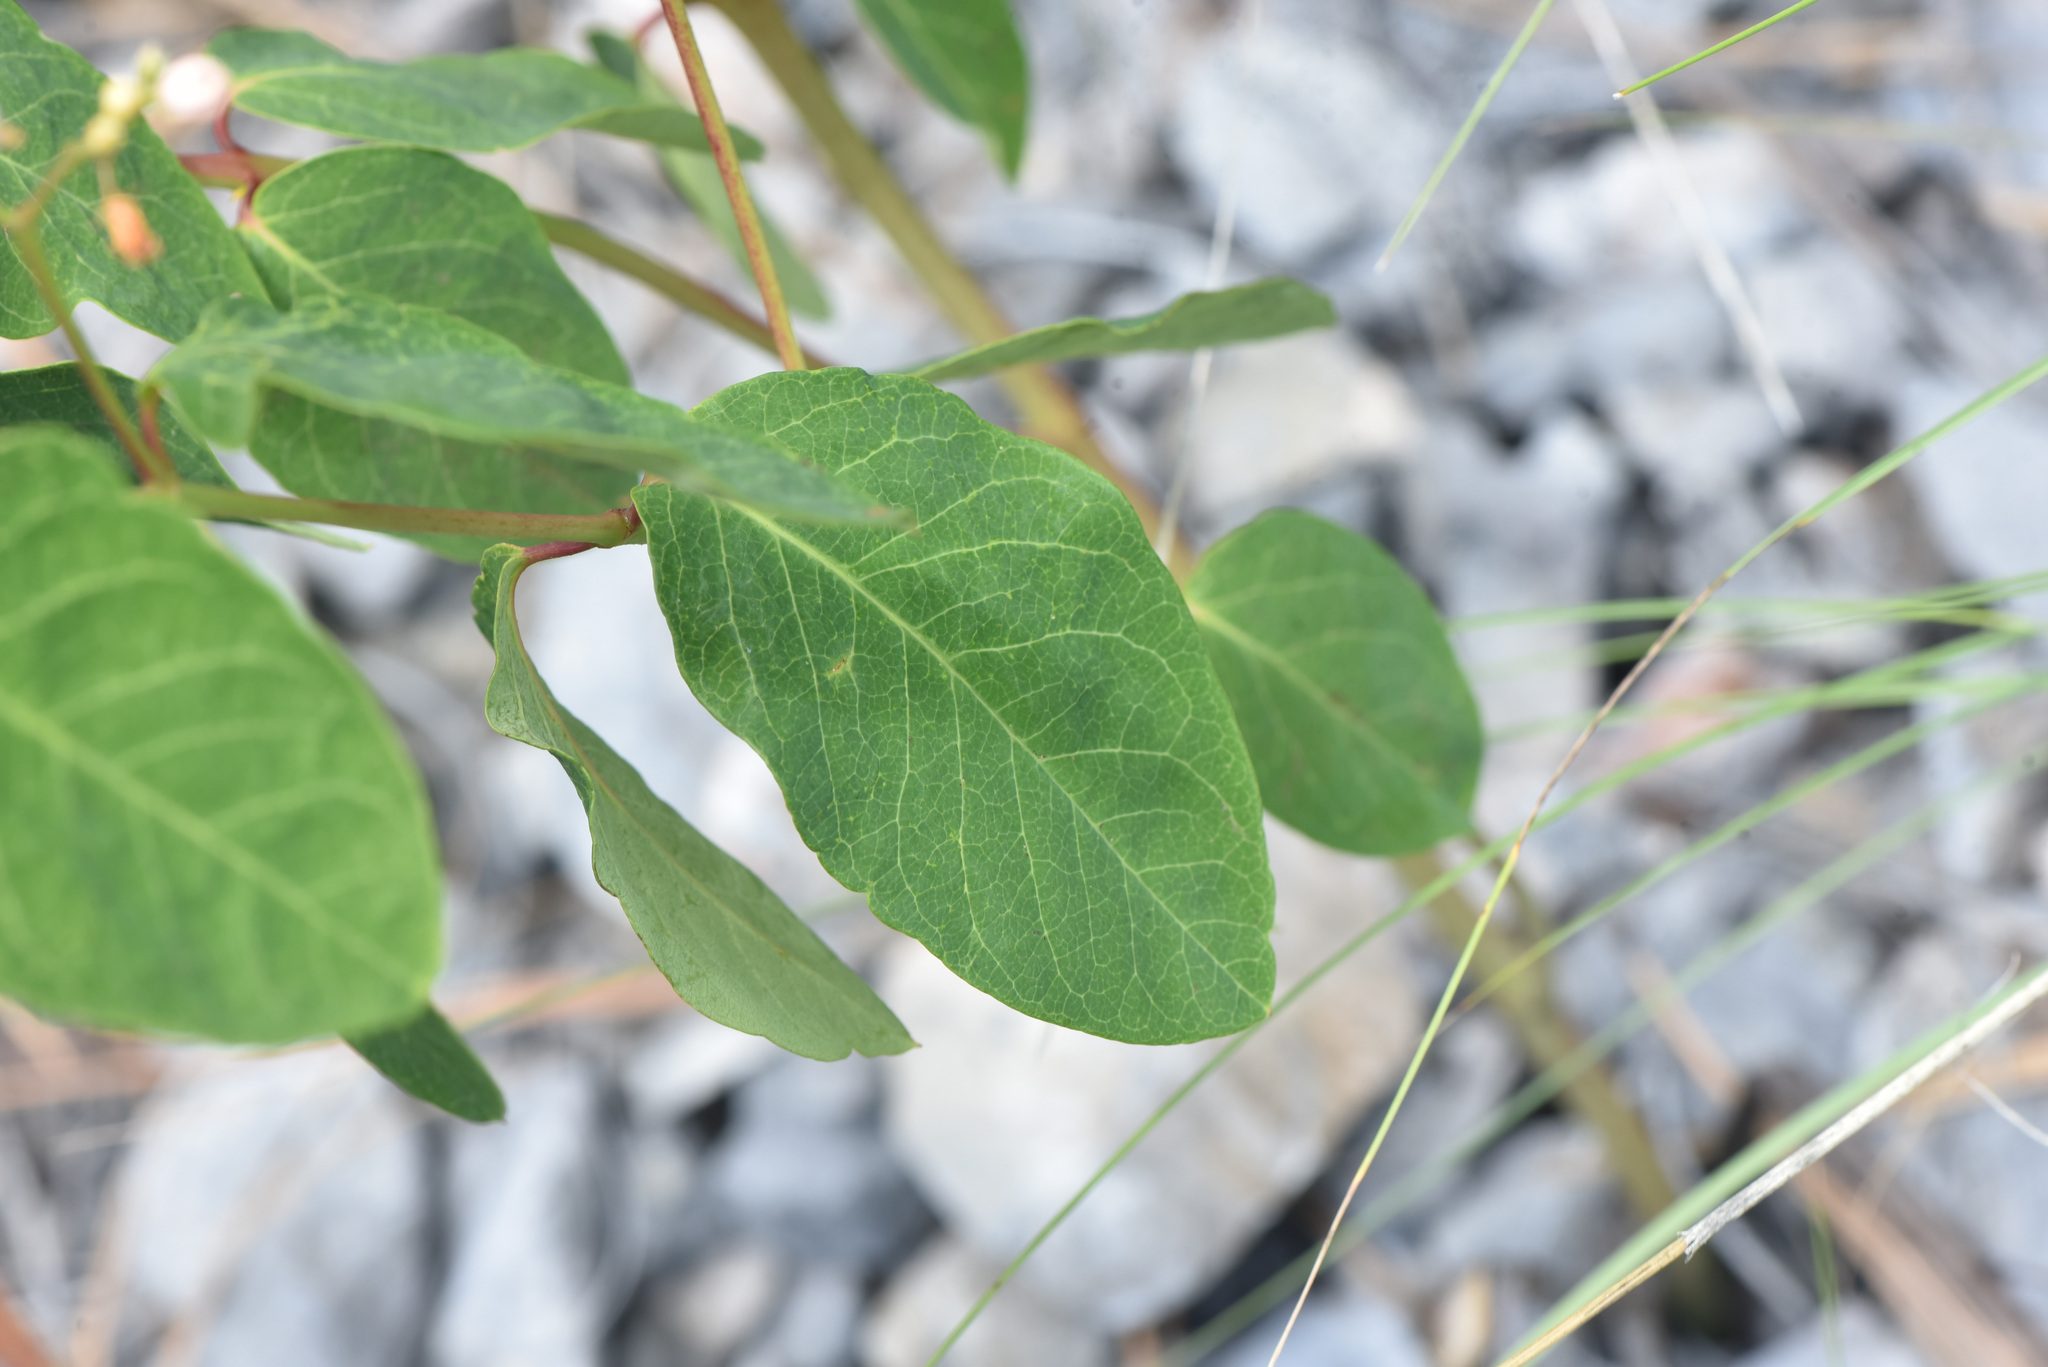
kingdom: Plantae
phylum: Tracheophyta
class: Magnoliopsida
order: Gentianales
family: Apocynaceae
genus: Apocynum
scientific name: Apocynum androsaemifolium
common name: Spreading dogbane
